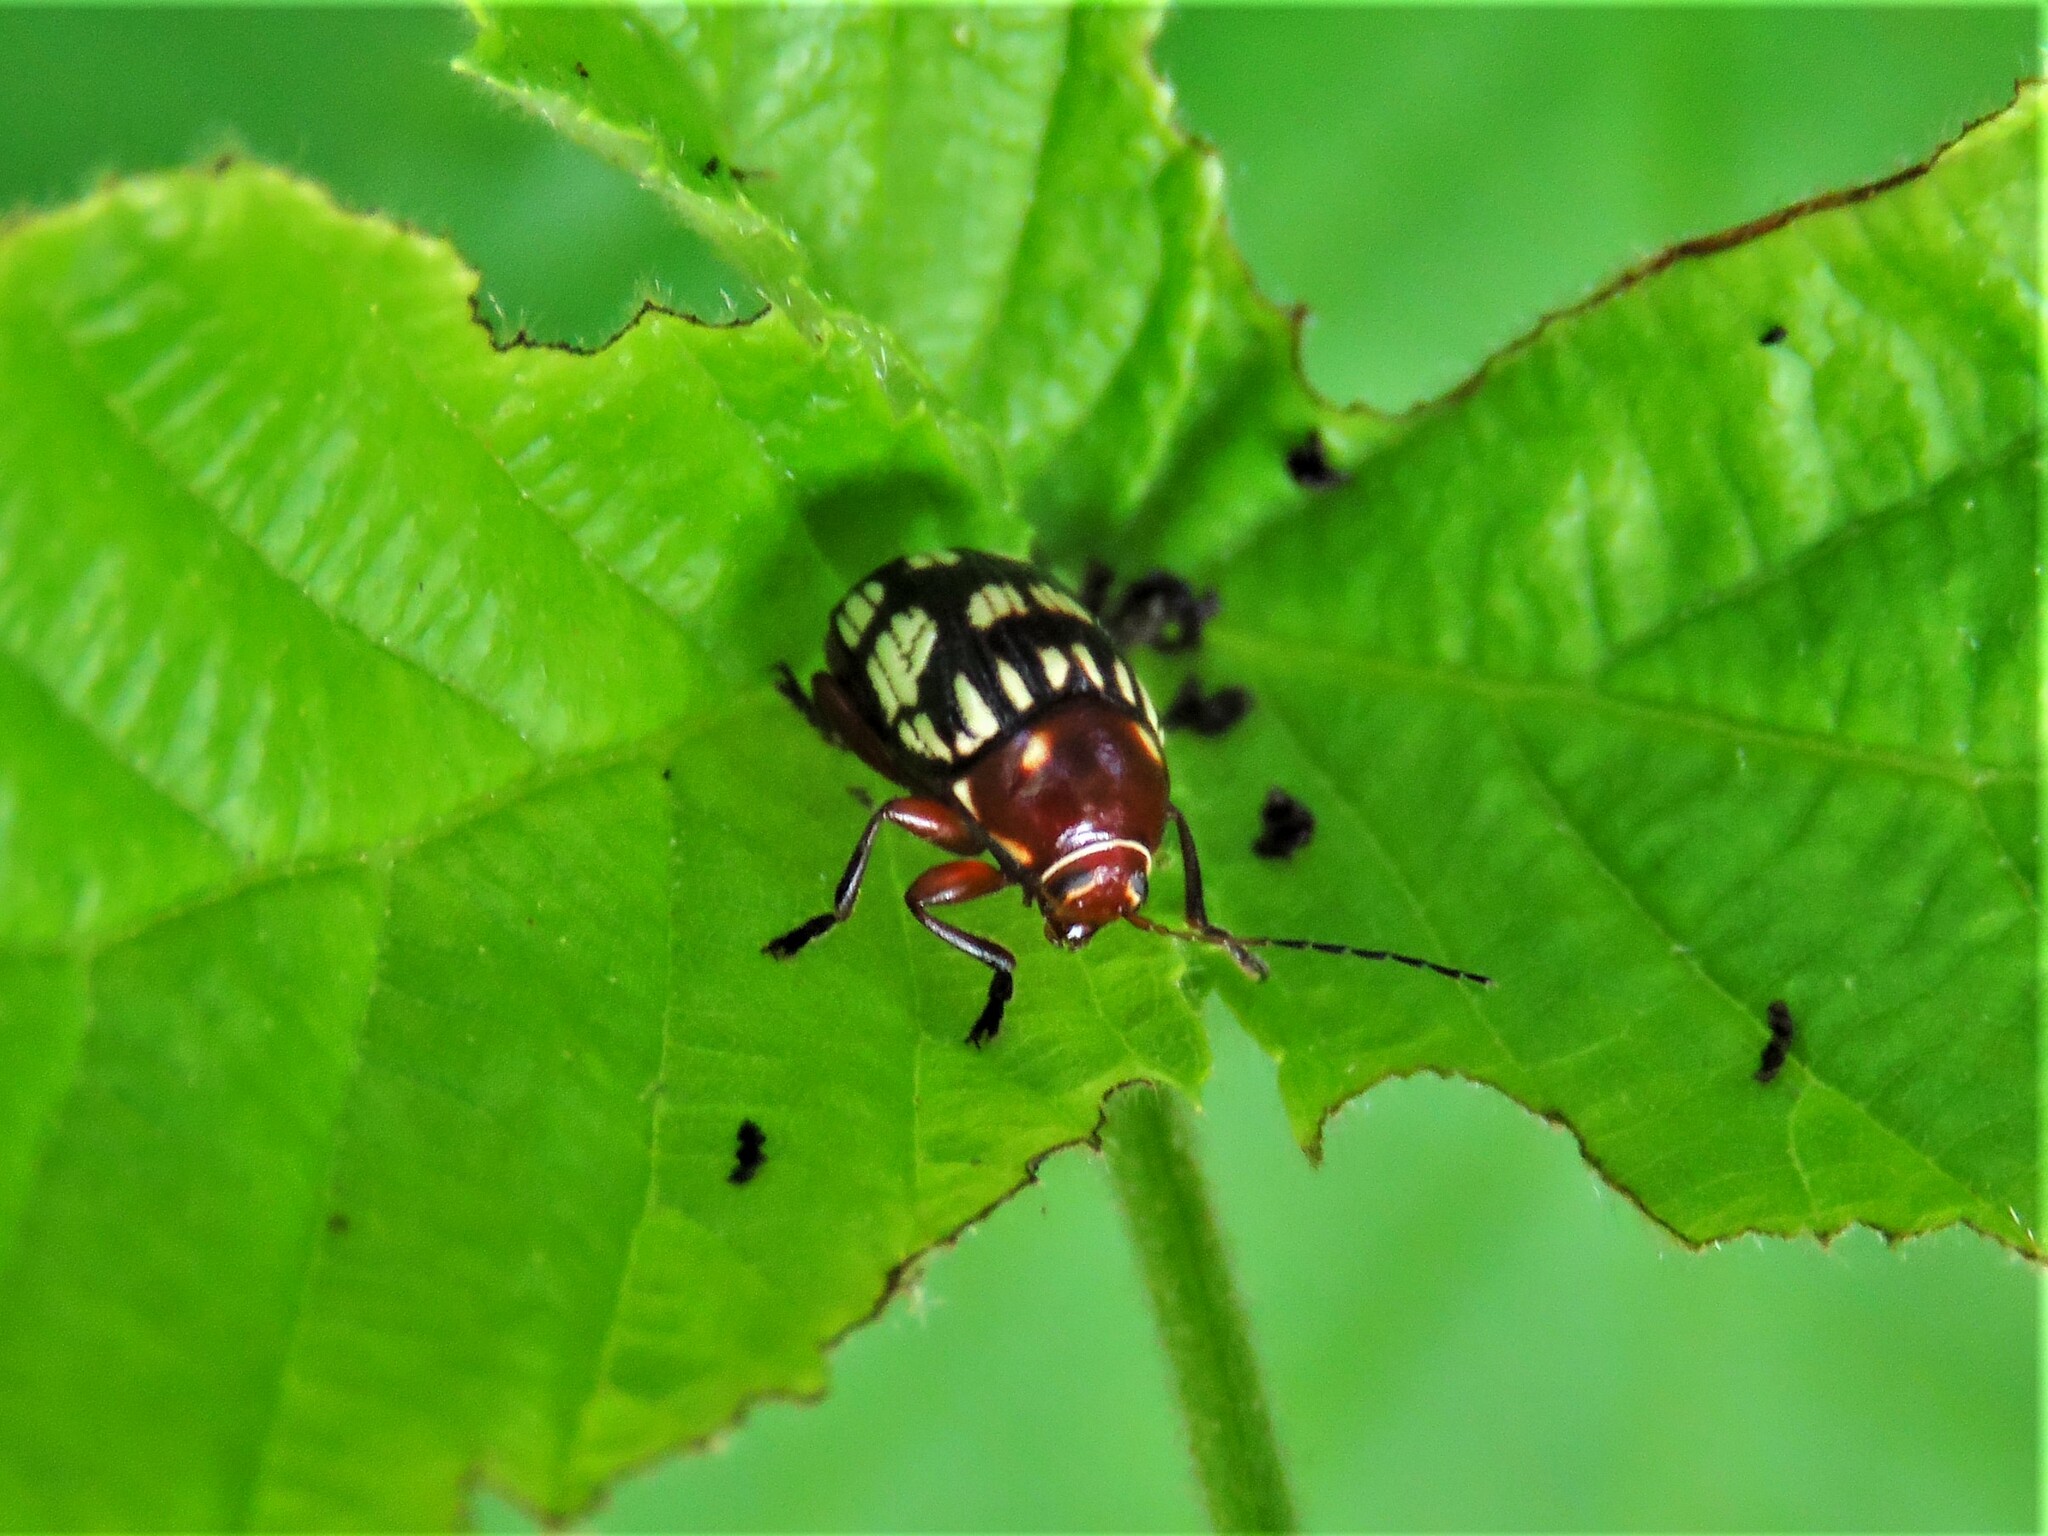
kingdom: Animalia
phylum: Arthropoda
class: Insecta
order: Coleoptera
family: Chrysomelidae
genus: Bassareus
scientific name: Bassareus brunnipes
